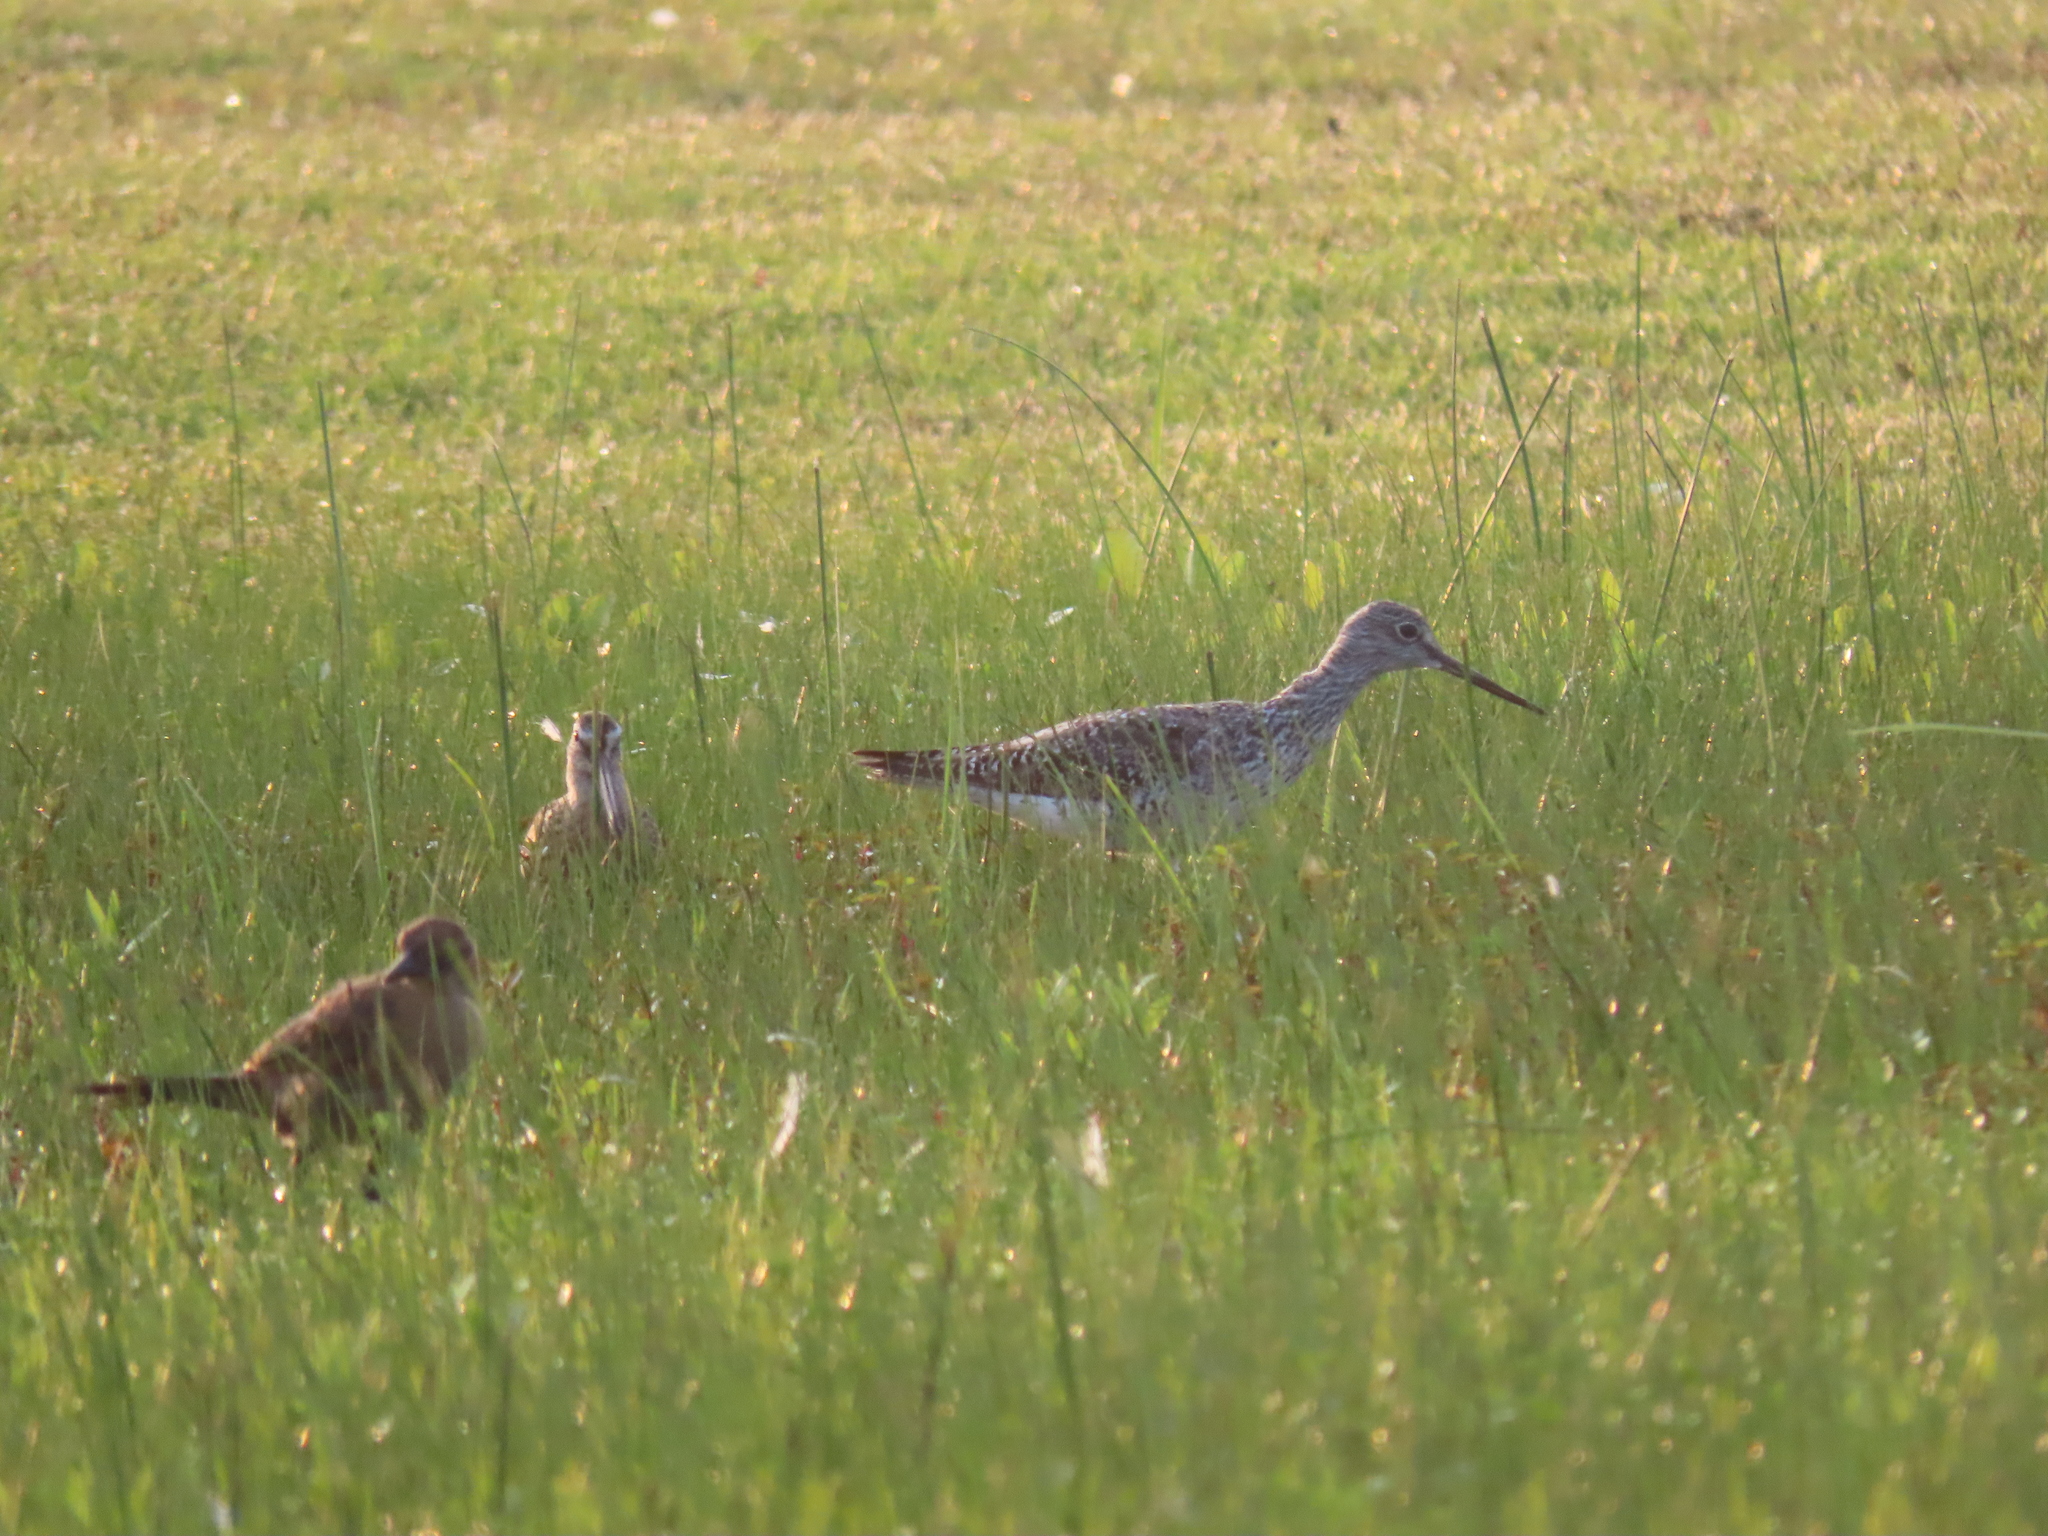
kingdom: Animalia
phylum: Chordata
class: Aves
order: Charadriiformes
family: Scolopacidae
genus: Tringa
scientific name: Tringa melanoleuca
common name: Greater yellowlegs
